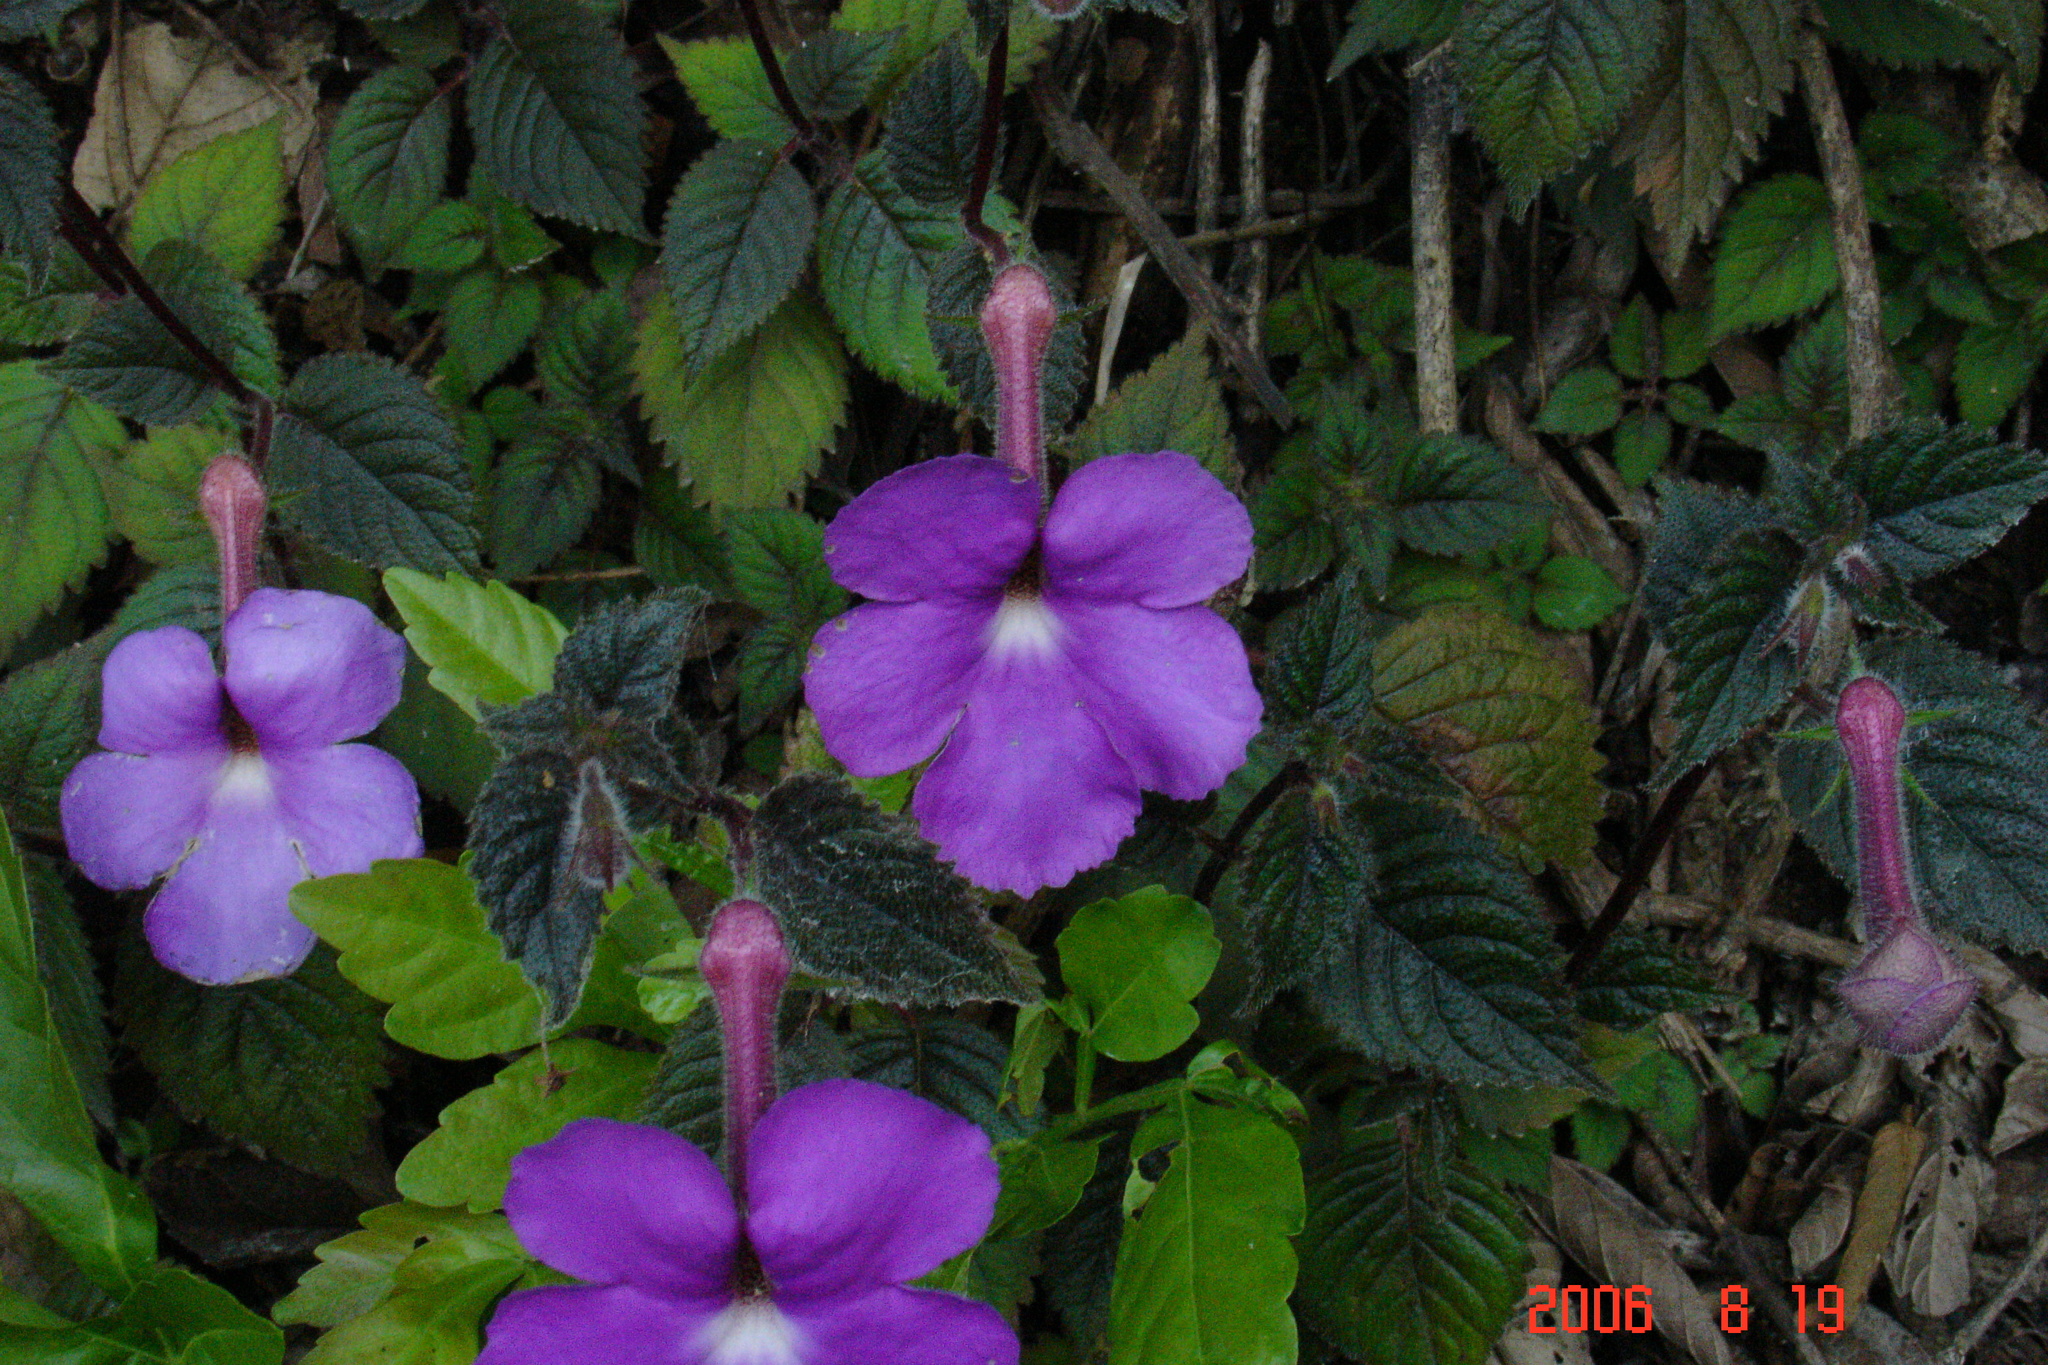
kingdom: Plantae
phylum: Tracheophyta
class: Magnoliopsida
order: Lamiales
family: Gesneriaceae
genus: Achimenes
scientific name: Achimenes grandiflora
